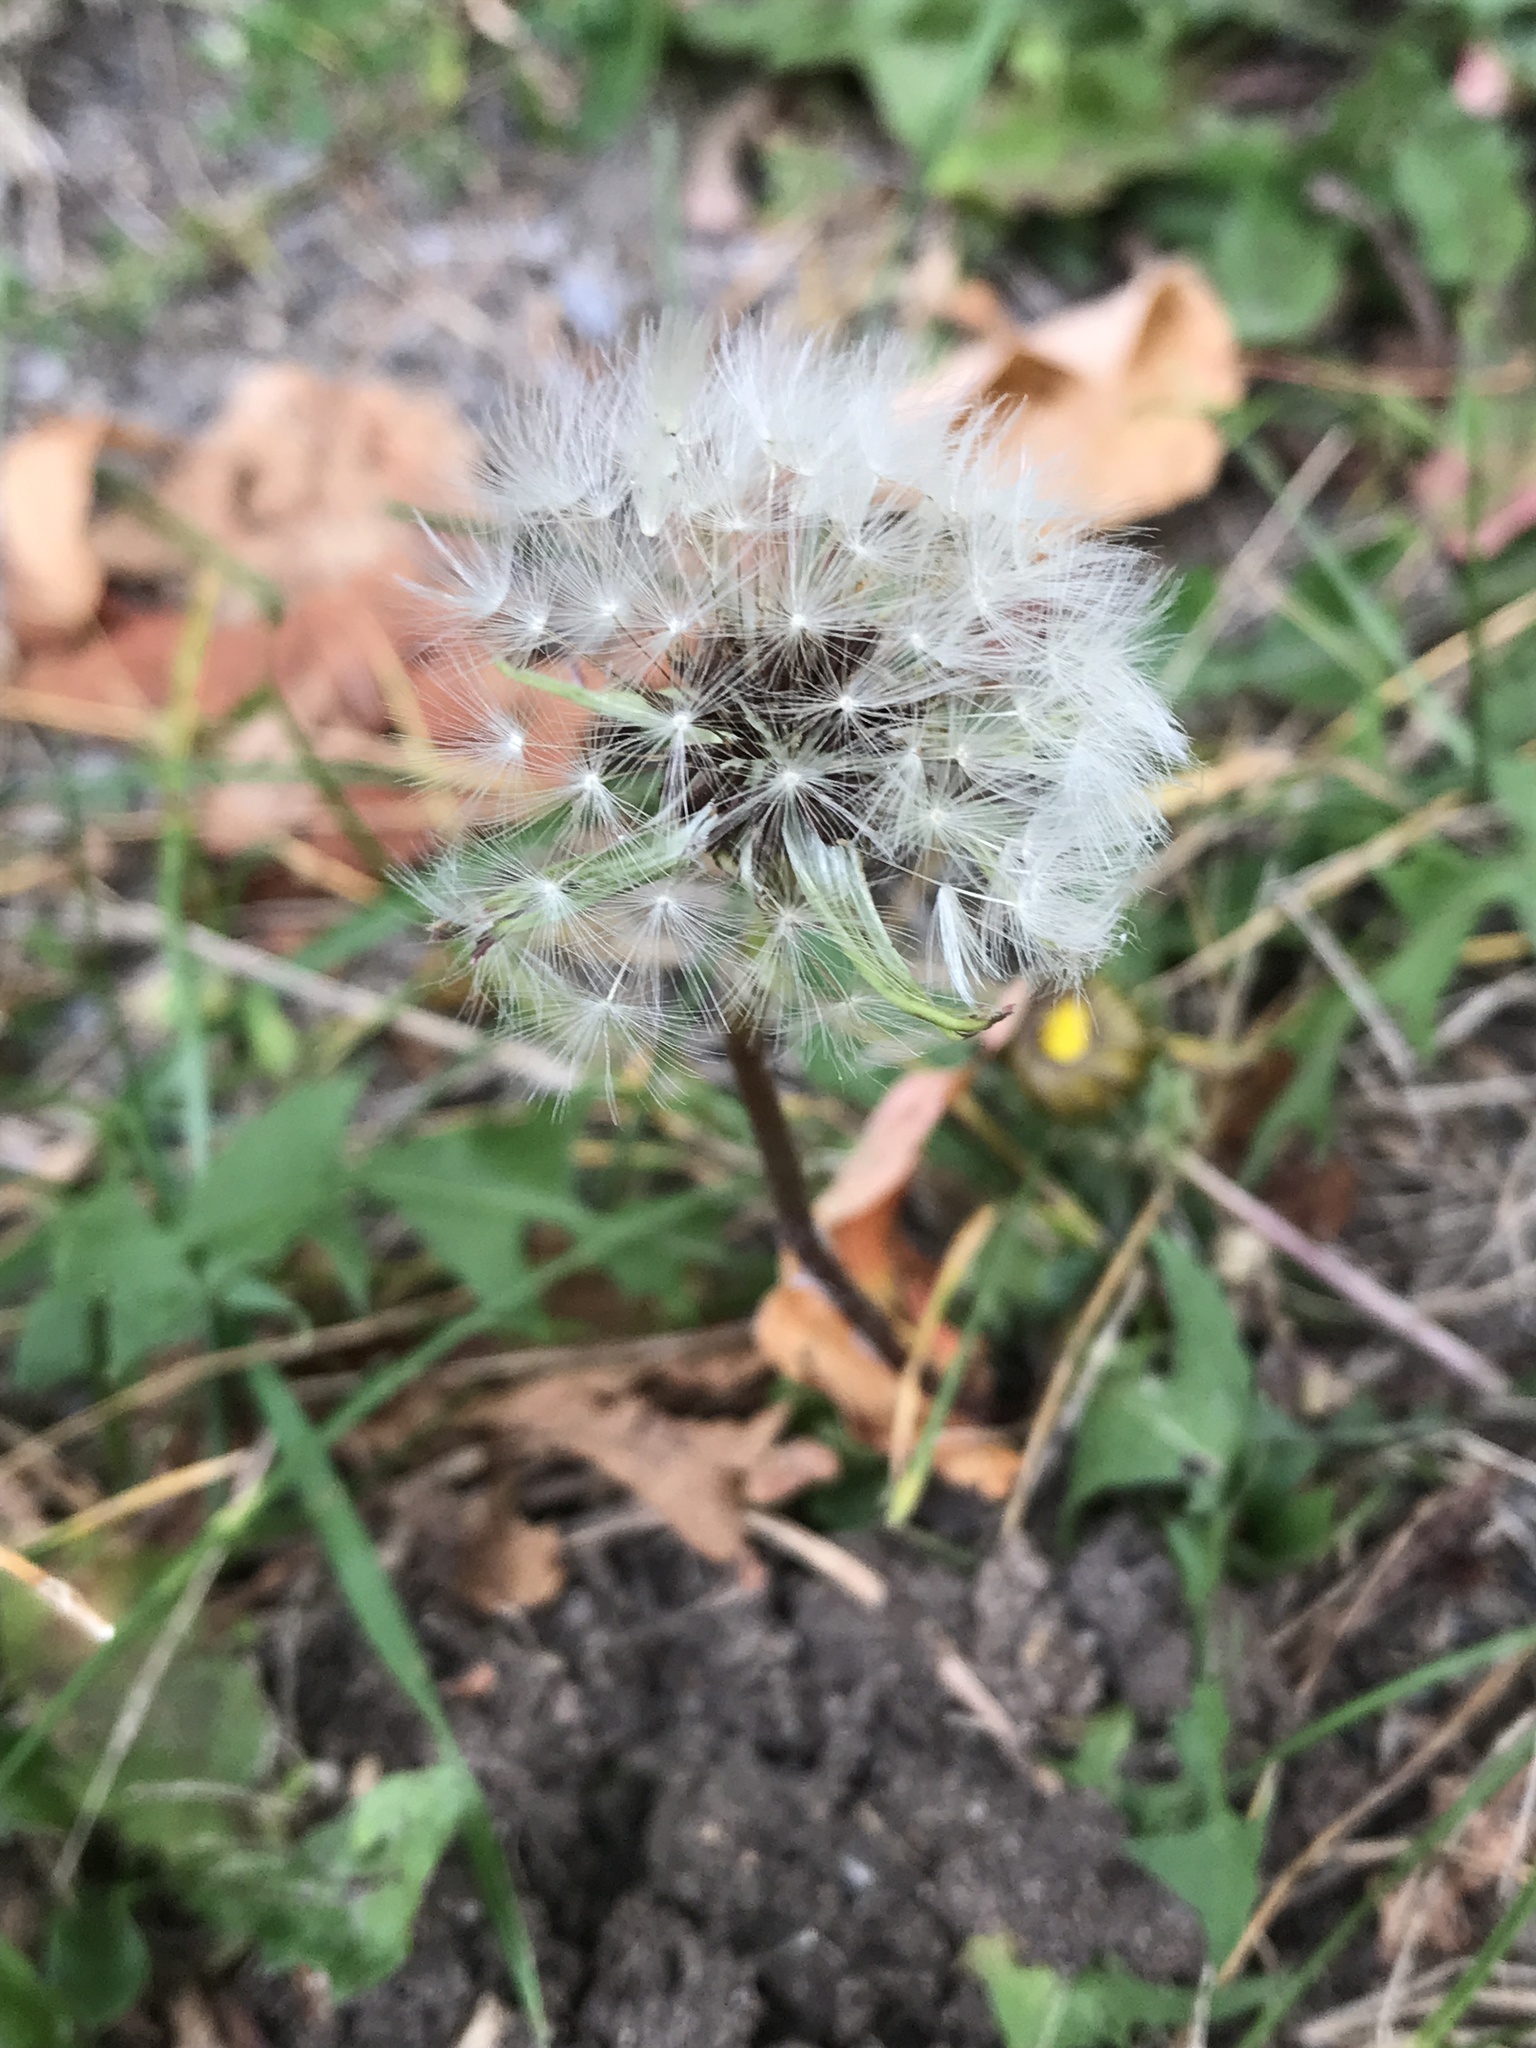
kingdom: Plantae
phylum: Tracheophyta
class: Magnoliopsida
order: Asterales
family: Asteraceae
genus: Taraxacum
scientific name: Taraxacum officinale
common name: Common dandelion
